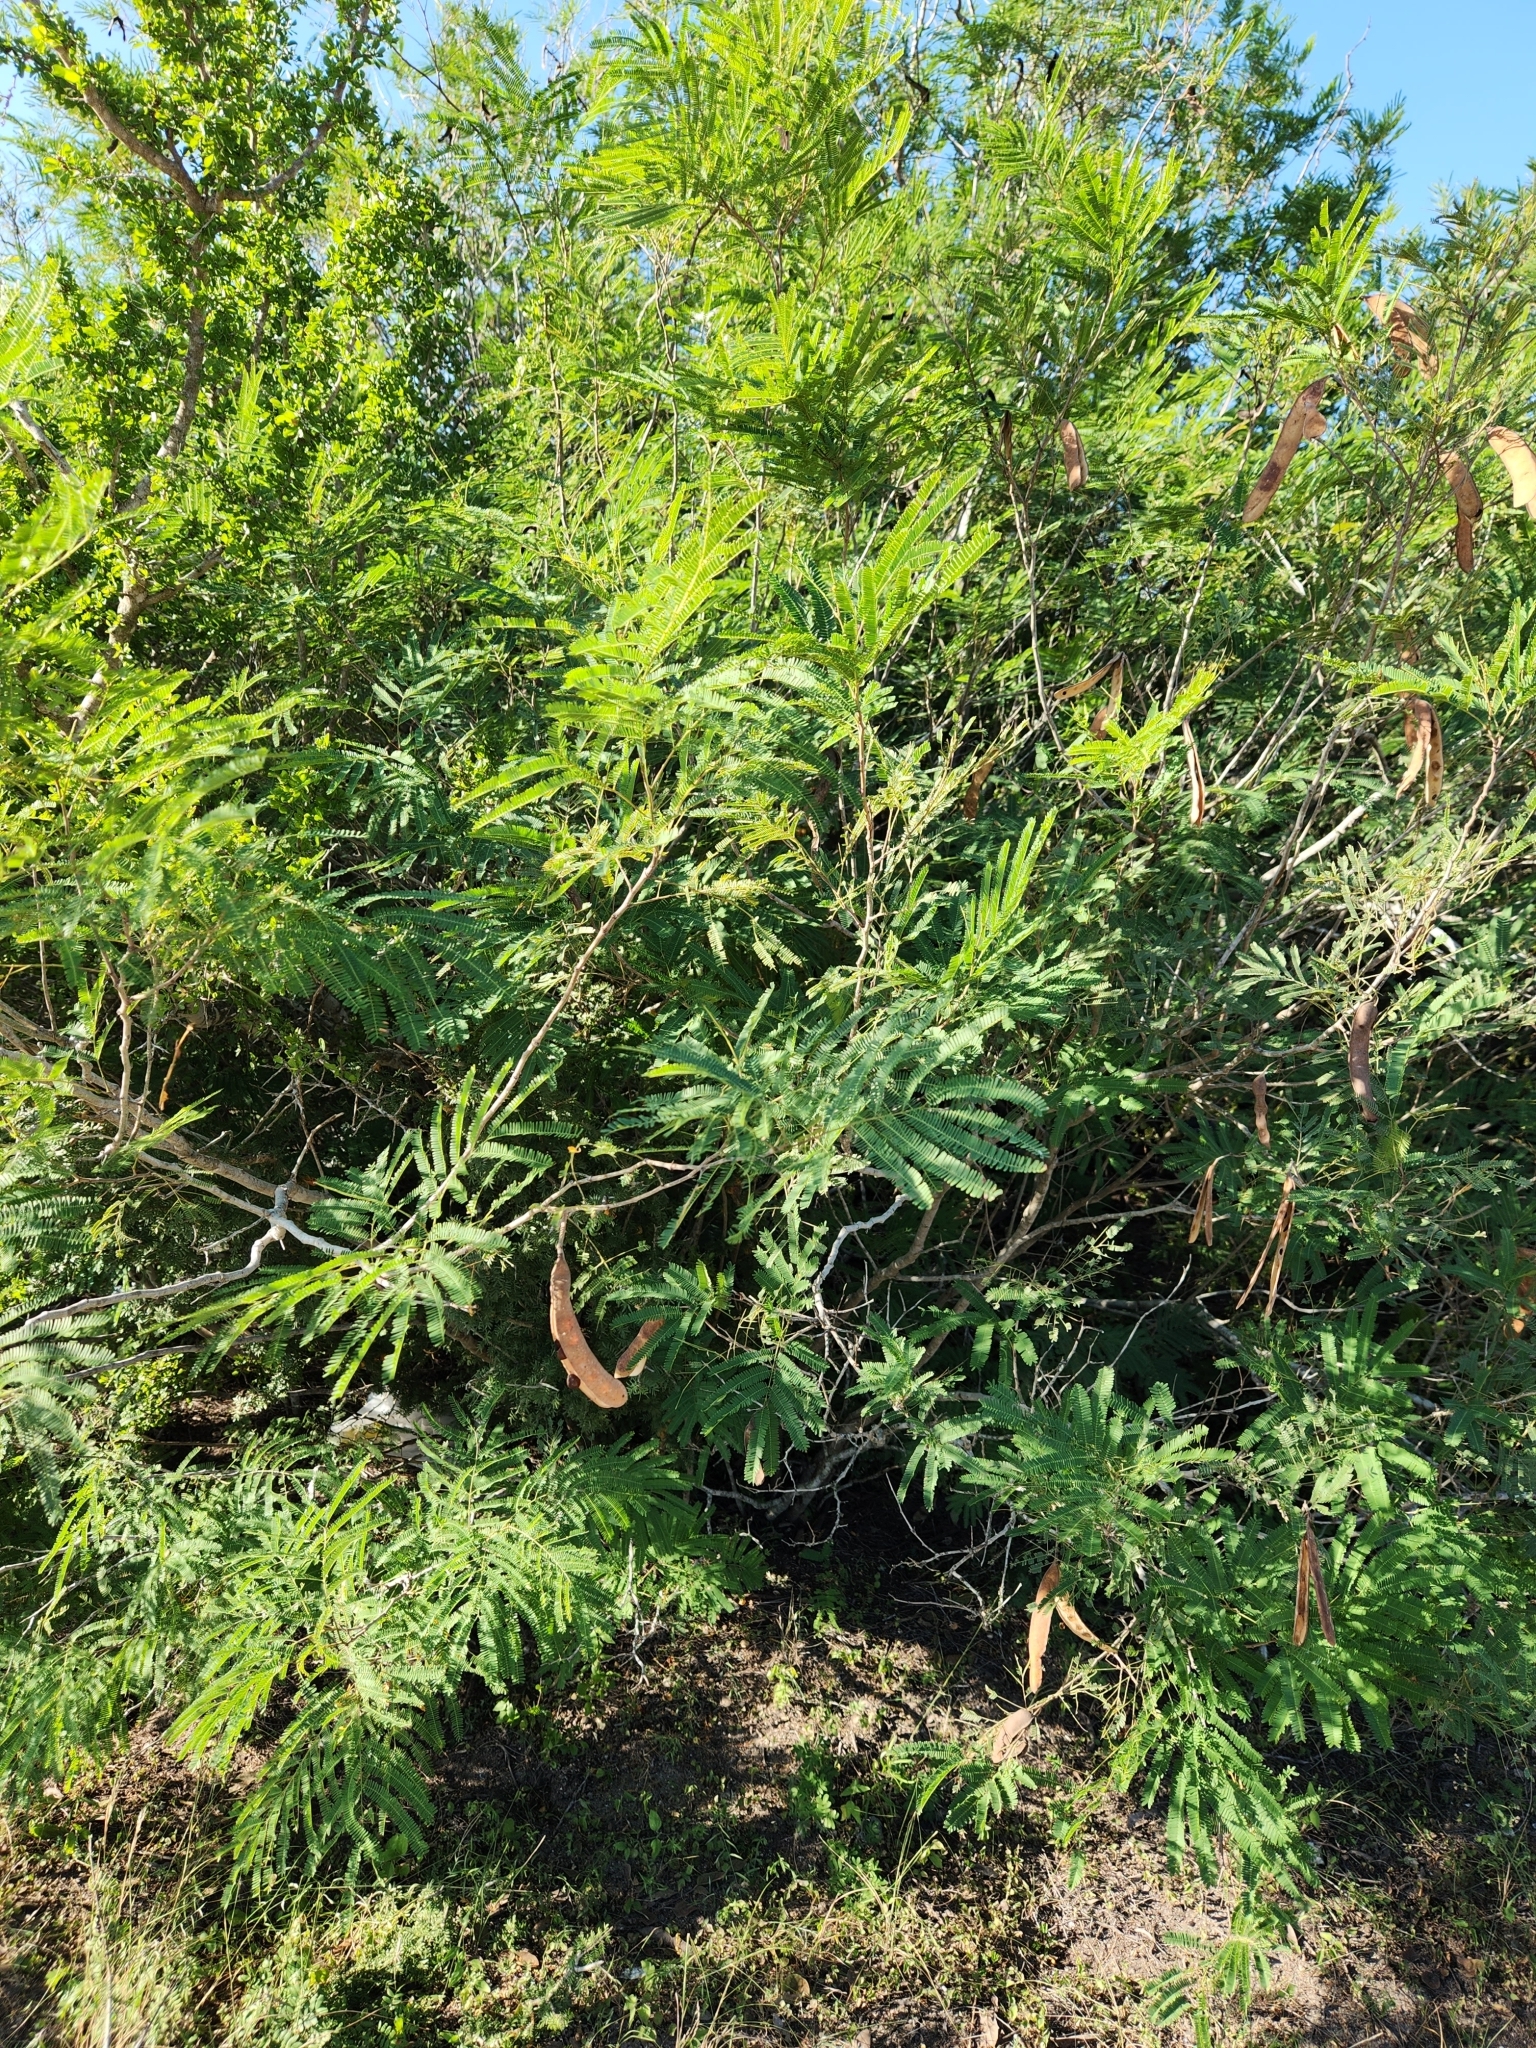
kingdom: Plantae
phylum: Tracheophyta
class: Magnoliopsida
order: Fabales
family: Fabaceae
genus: Senegalia
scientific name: Senegalia berlandieri
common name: Berlandier acacia
